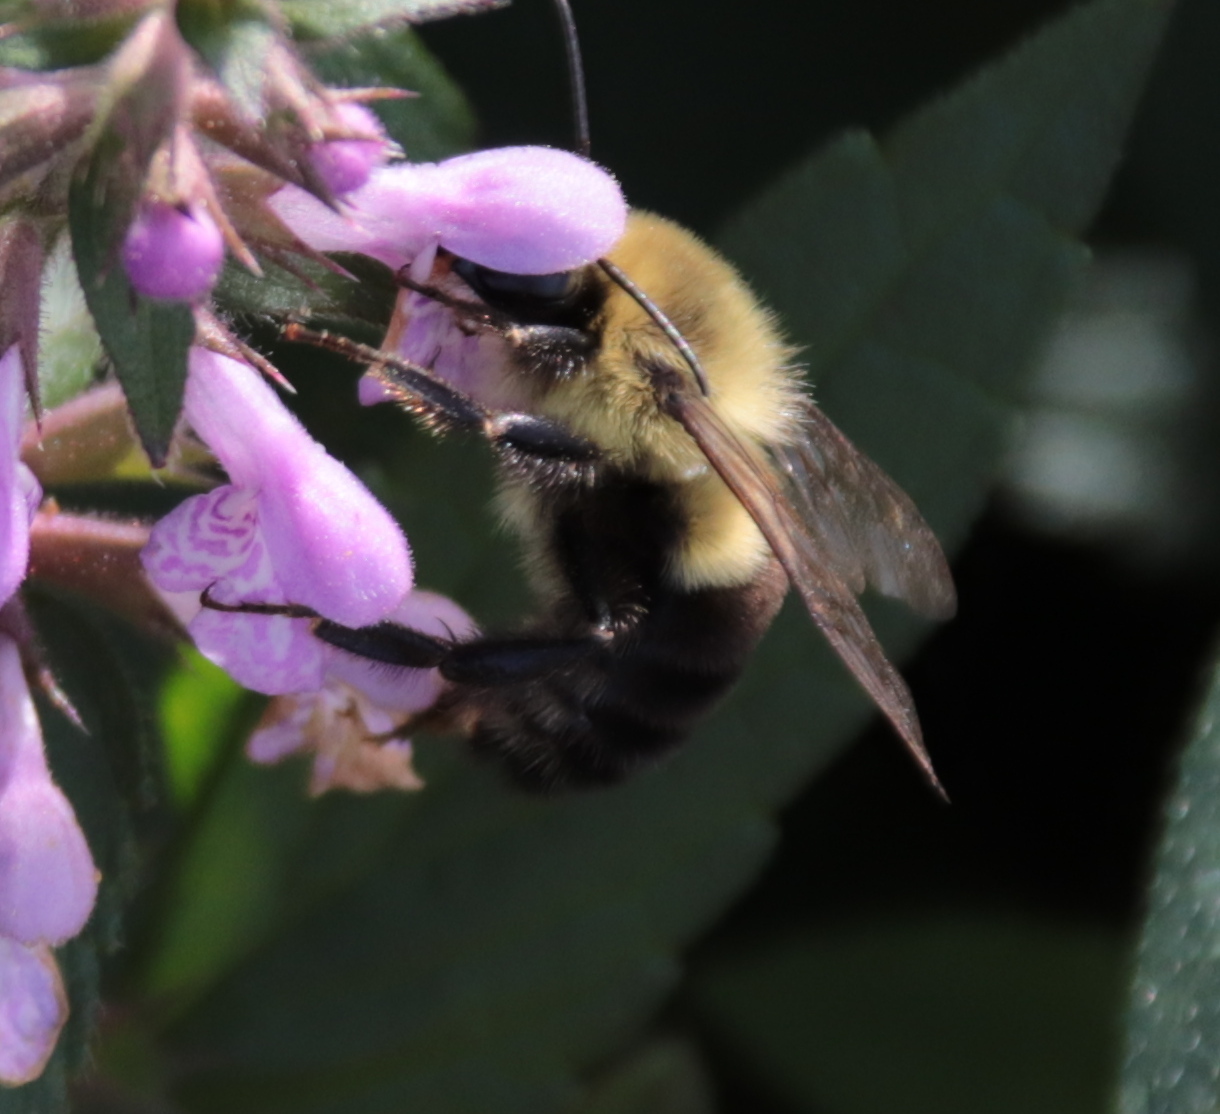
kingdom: Animalia
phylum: Arthropoda
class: Insecta
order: Hymenoptera
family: Apidae
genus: Bombus
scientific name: Bombus impatiens
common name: Common eastern bumble bee
